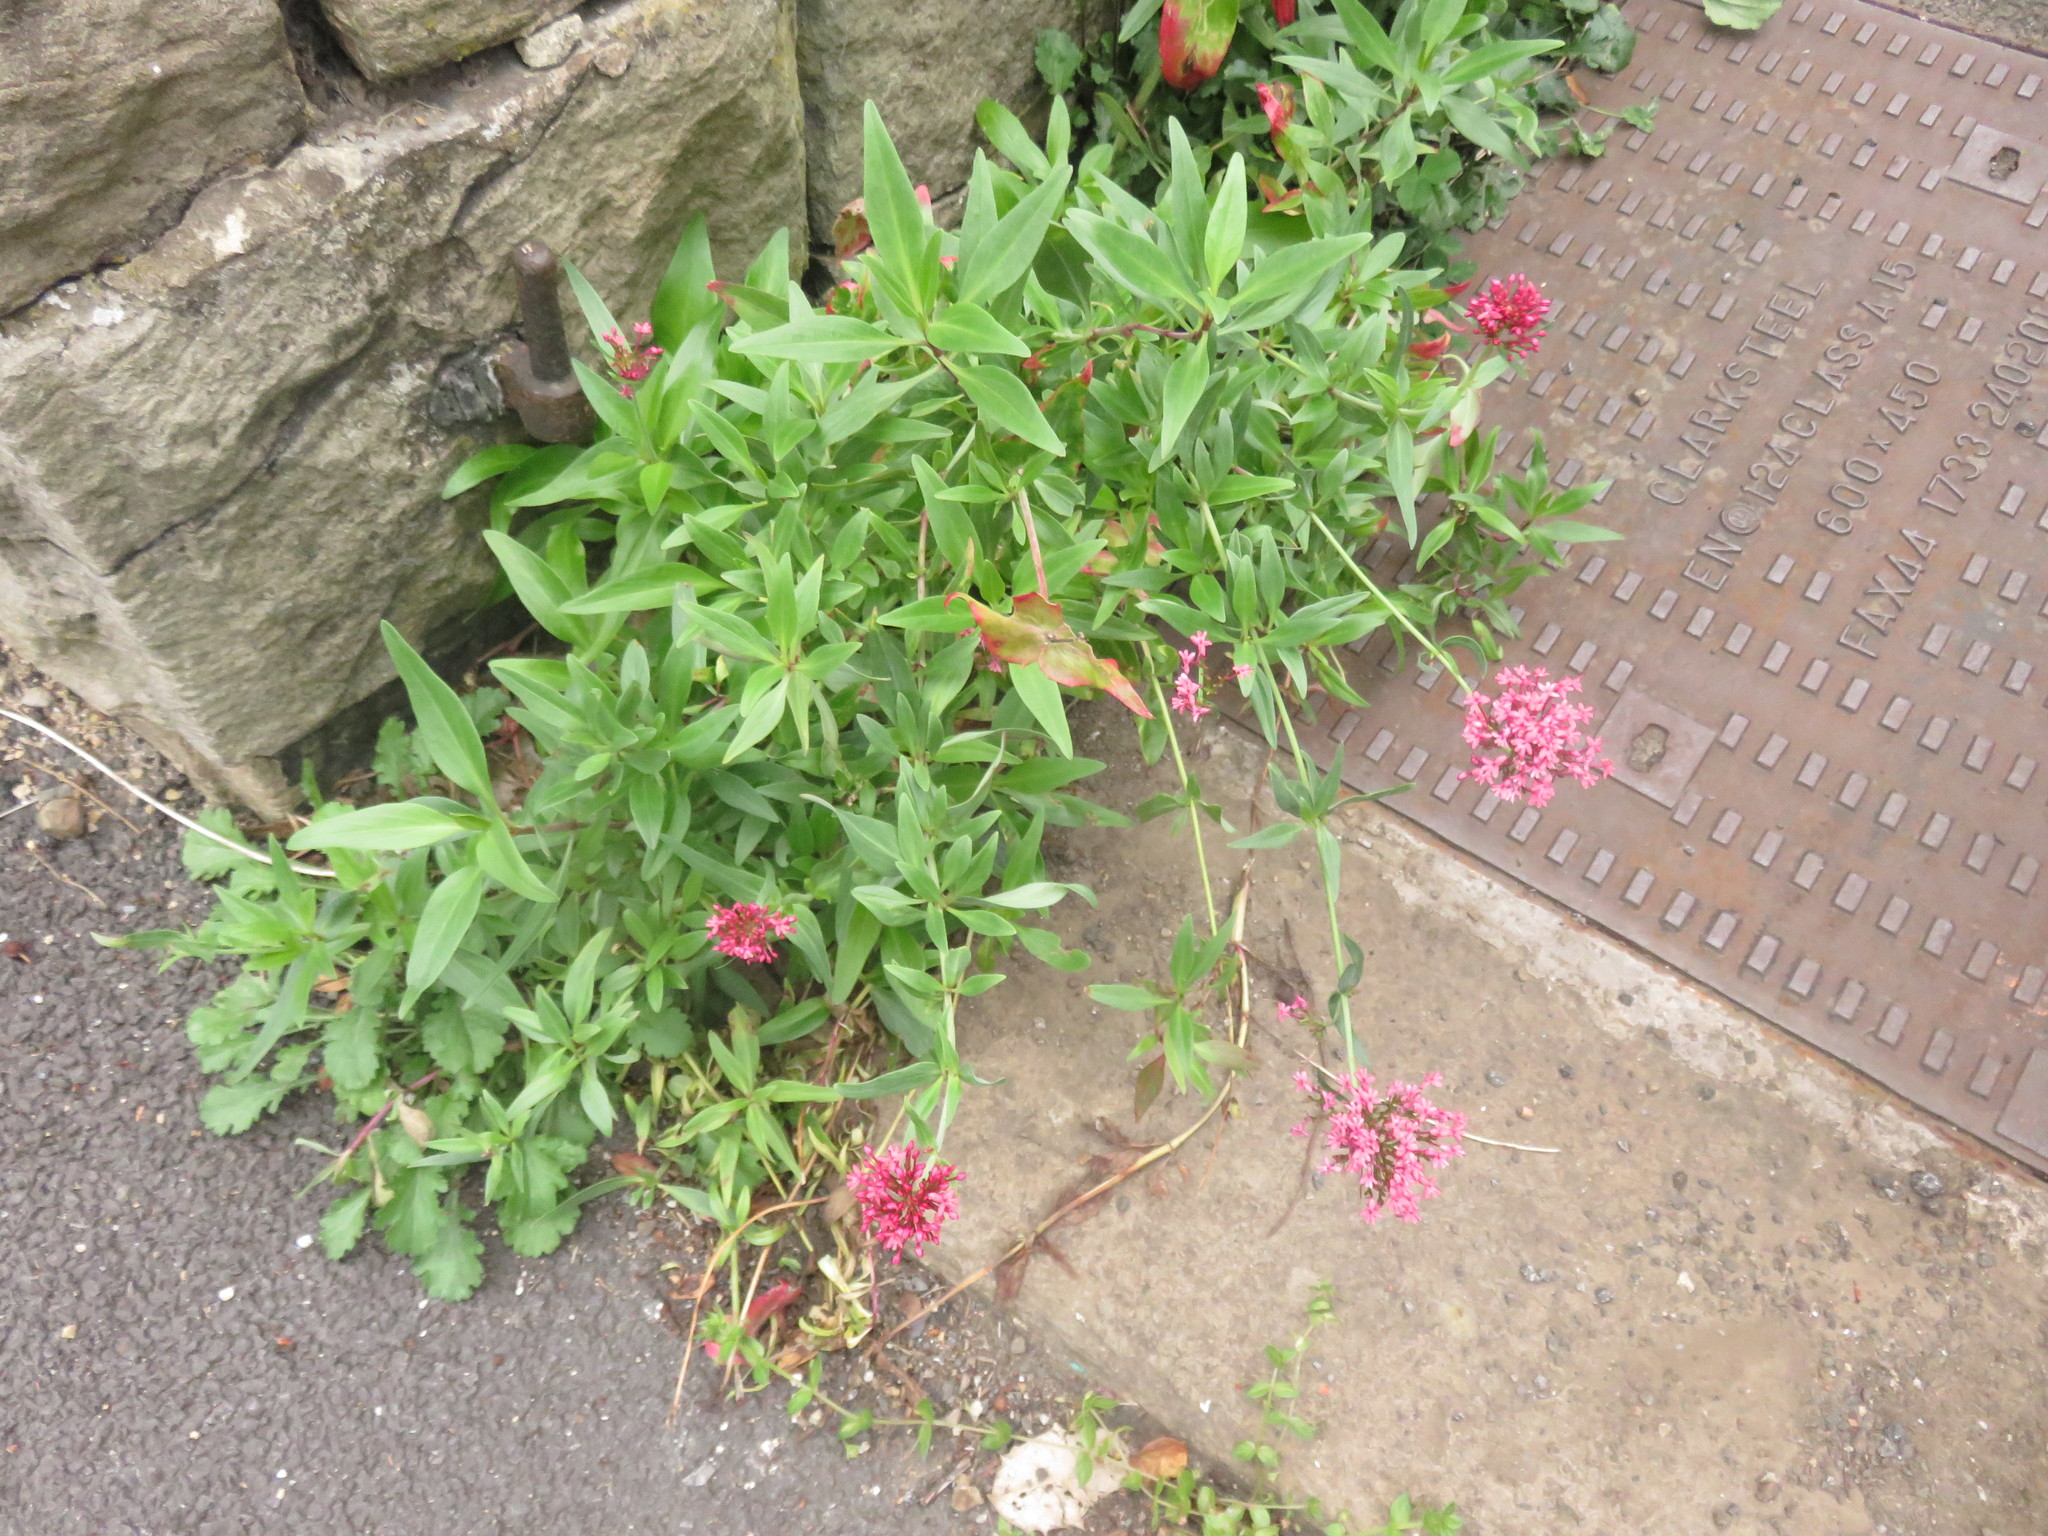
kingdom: Plantae
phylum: Tracheophyta
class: Magnoliopsida
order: Dipsacales
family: Caprifoliaceae
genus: Centranthus
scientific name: Centranthus ruber
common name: Red valerian
